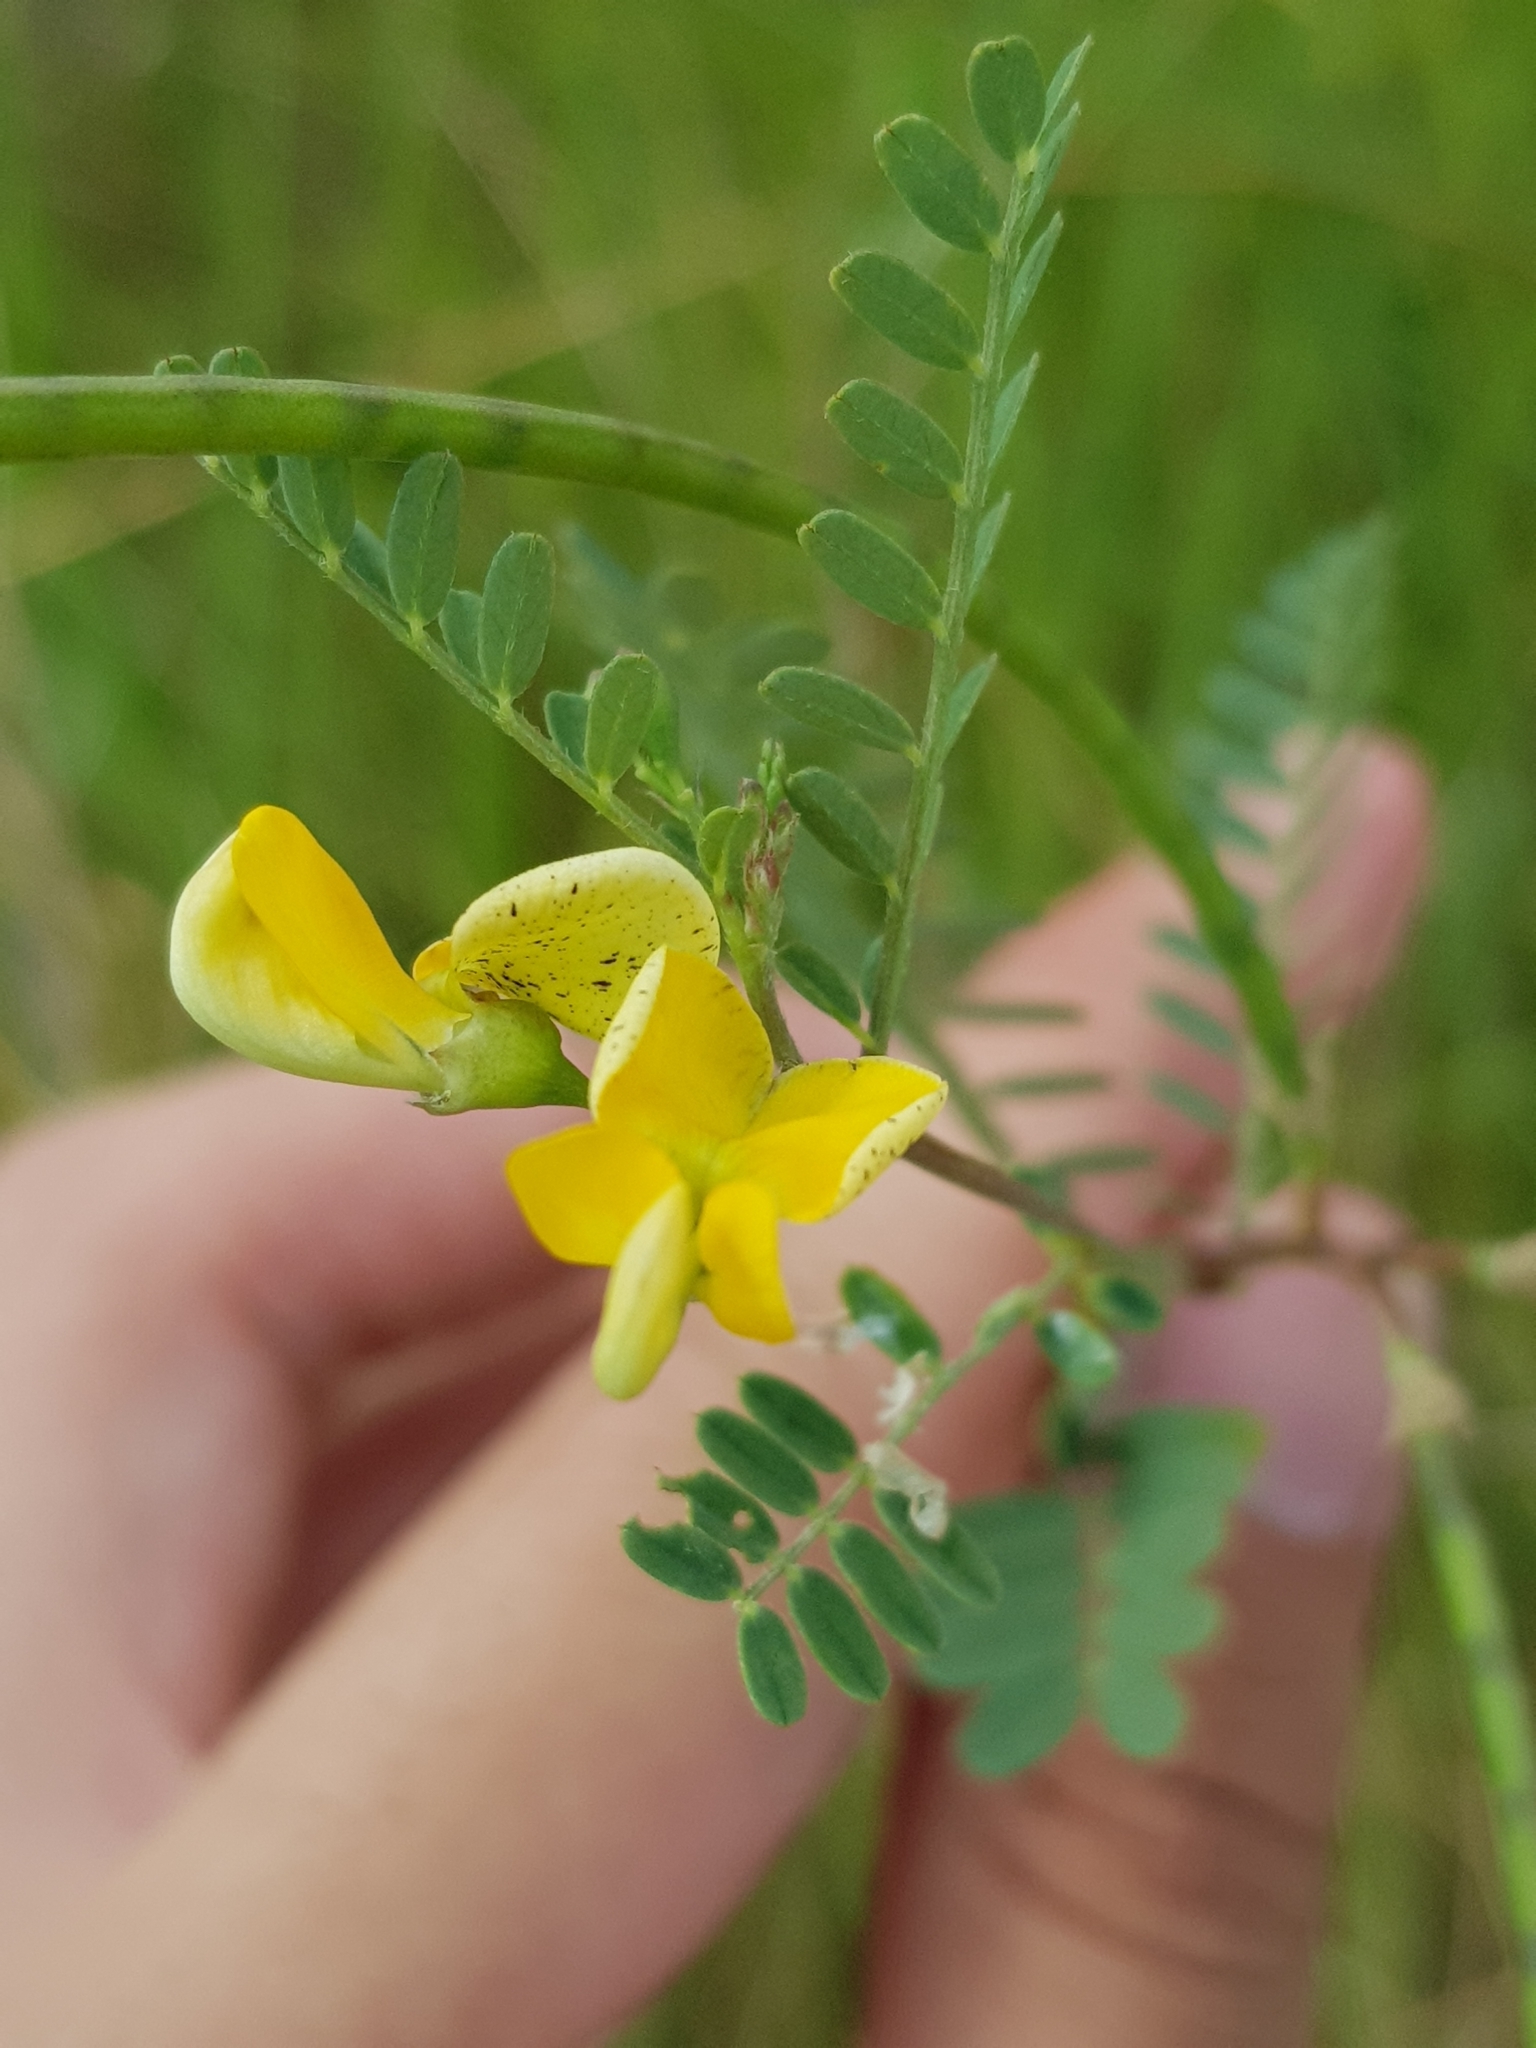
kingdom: Plantae
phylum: Tracheophyta
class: Magnoliopsida
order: Fabales
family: Fabaceae
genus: Sesbania
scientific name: Sesbania cannabina
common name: Canicha
